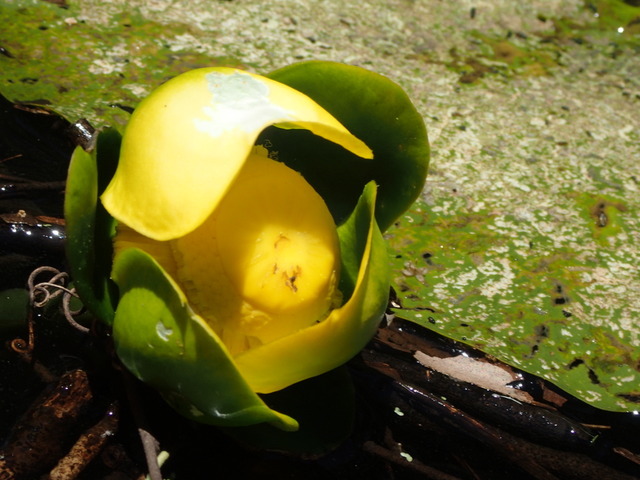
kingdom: Plantae
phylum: Tracheophyta
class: Magnoliopsida
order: Nymphaeales
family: Nymphaeaceae
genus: Nuphar
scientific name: Nuphar advena
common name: Spatter-dock
